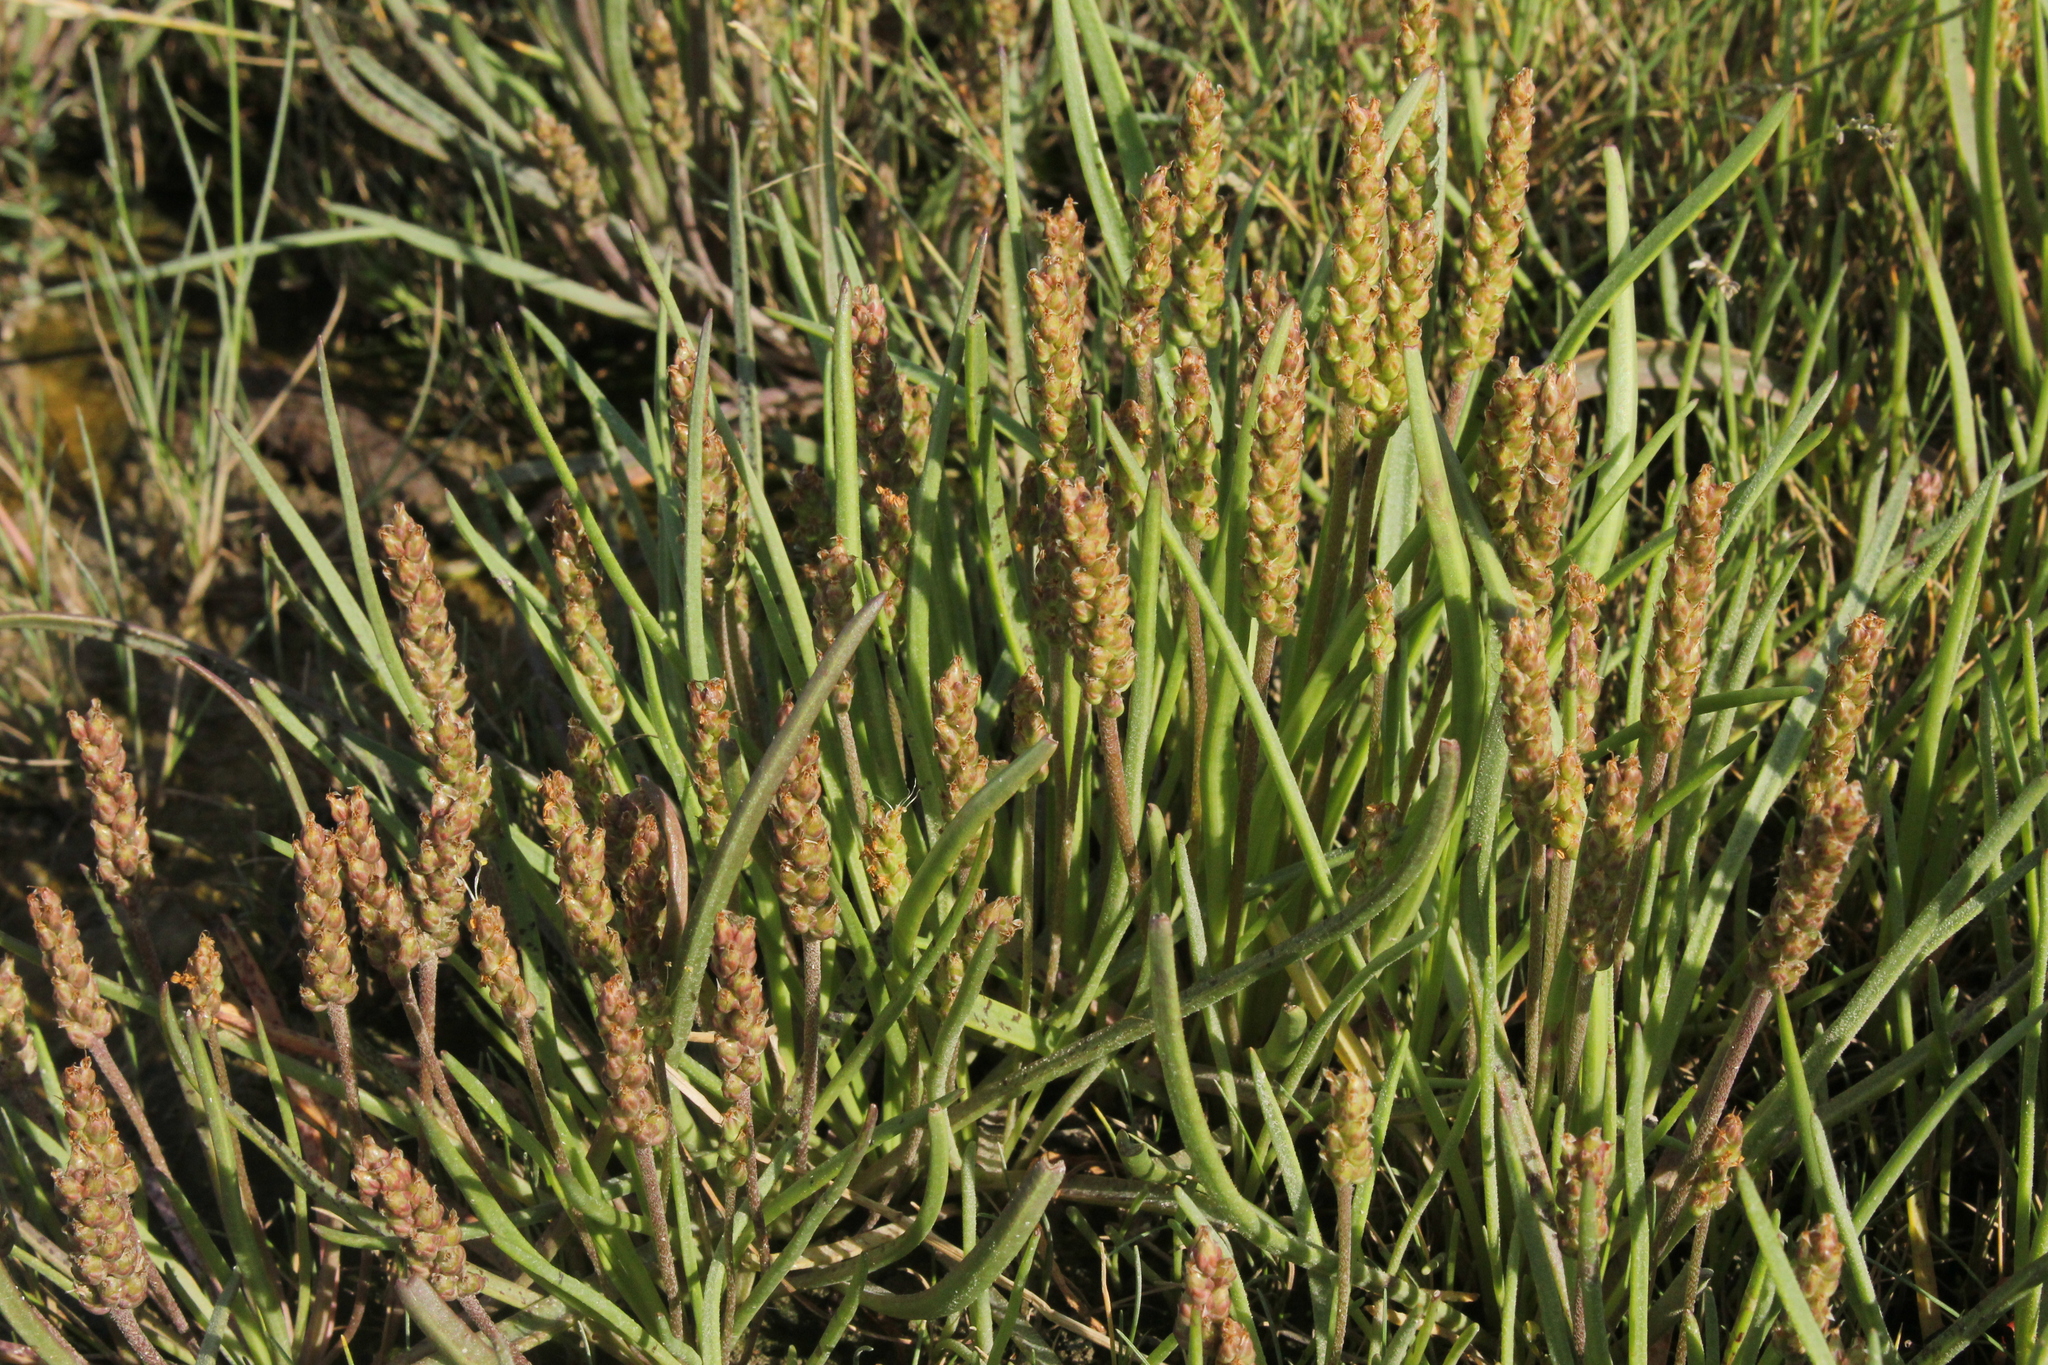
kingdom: Plantae
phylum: Tracheophyta
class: Magnoliopsida
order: Lamiales
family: Plantaginaceae
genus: Plantago
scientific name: Plantago maritima
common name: Sea plantain
